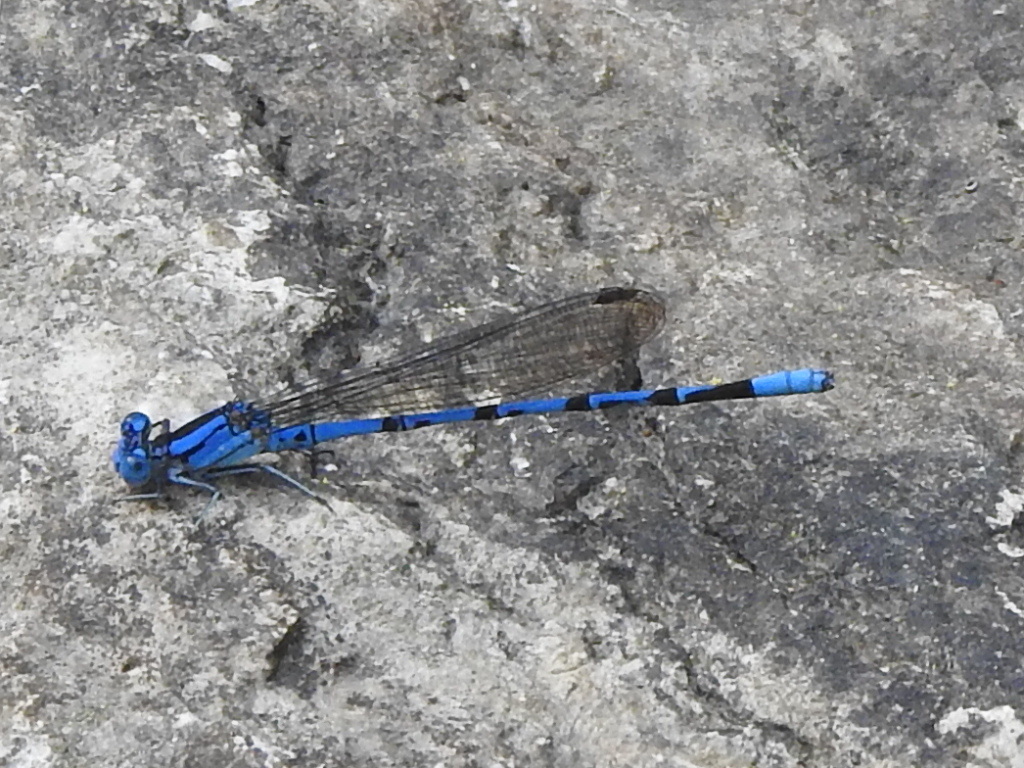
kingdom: Animalia
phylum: Arthropoda
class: Insecta
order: Odonata
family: Coenagrionidae
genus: Argia
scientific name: Argia funebris
